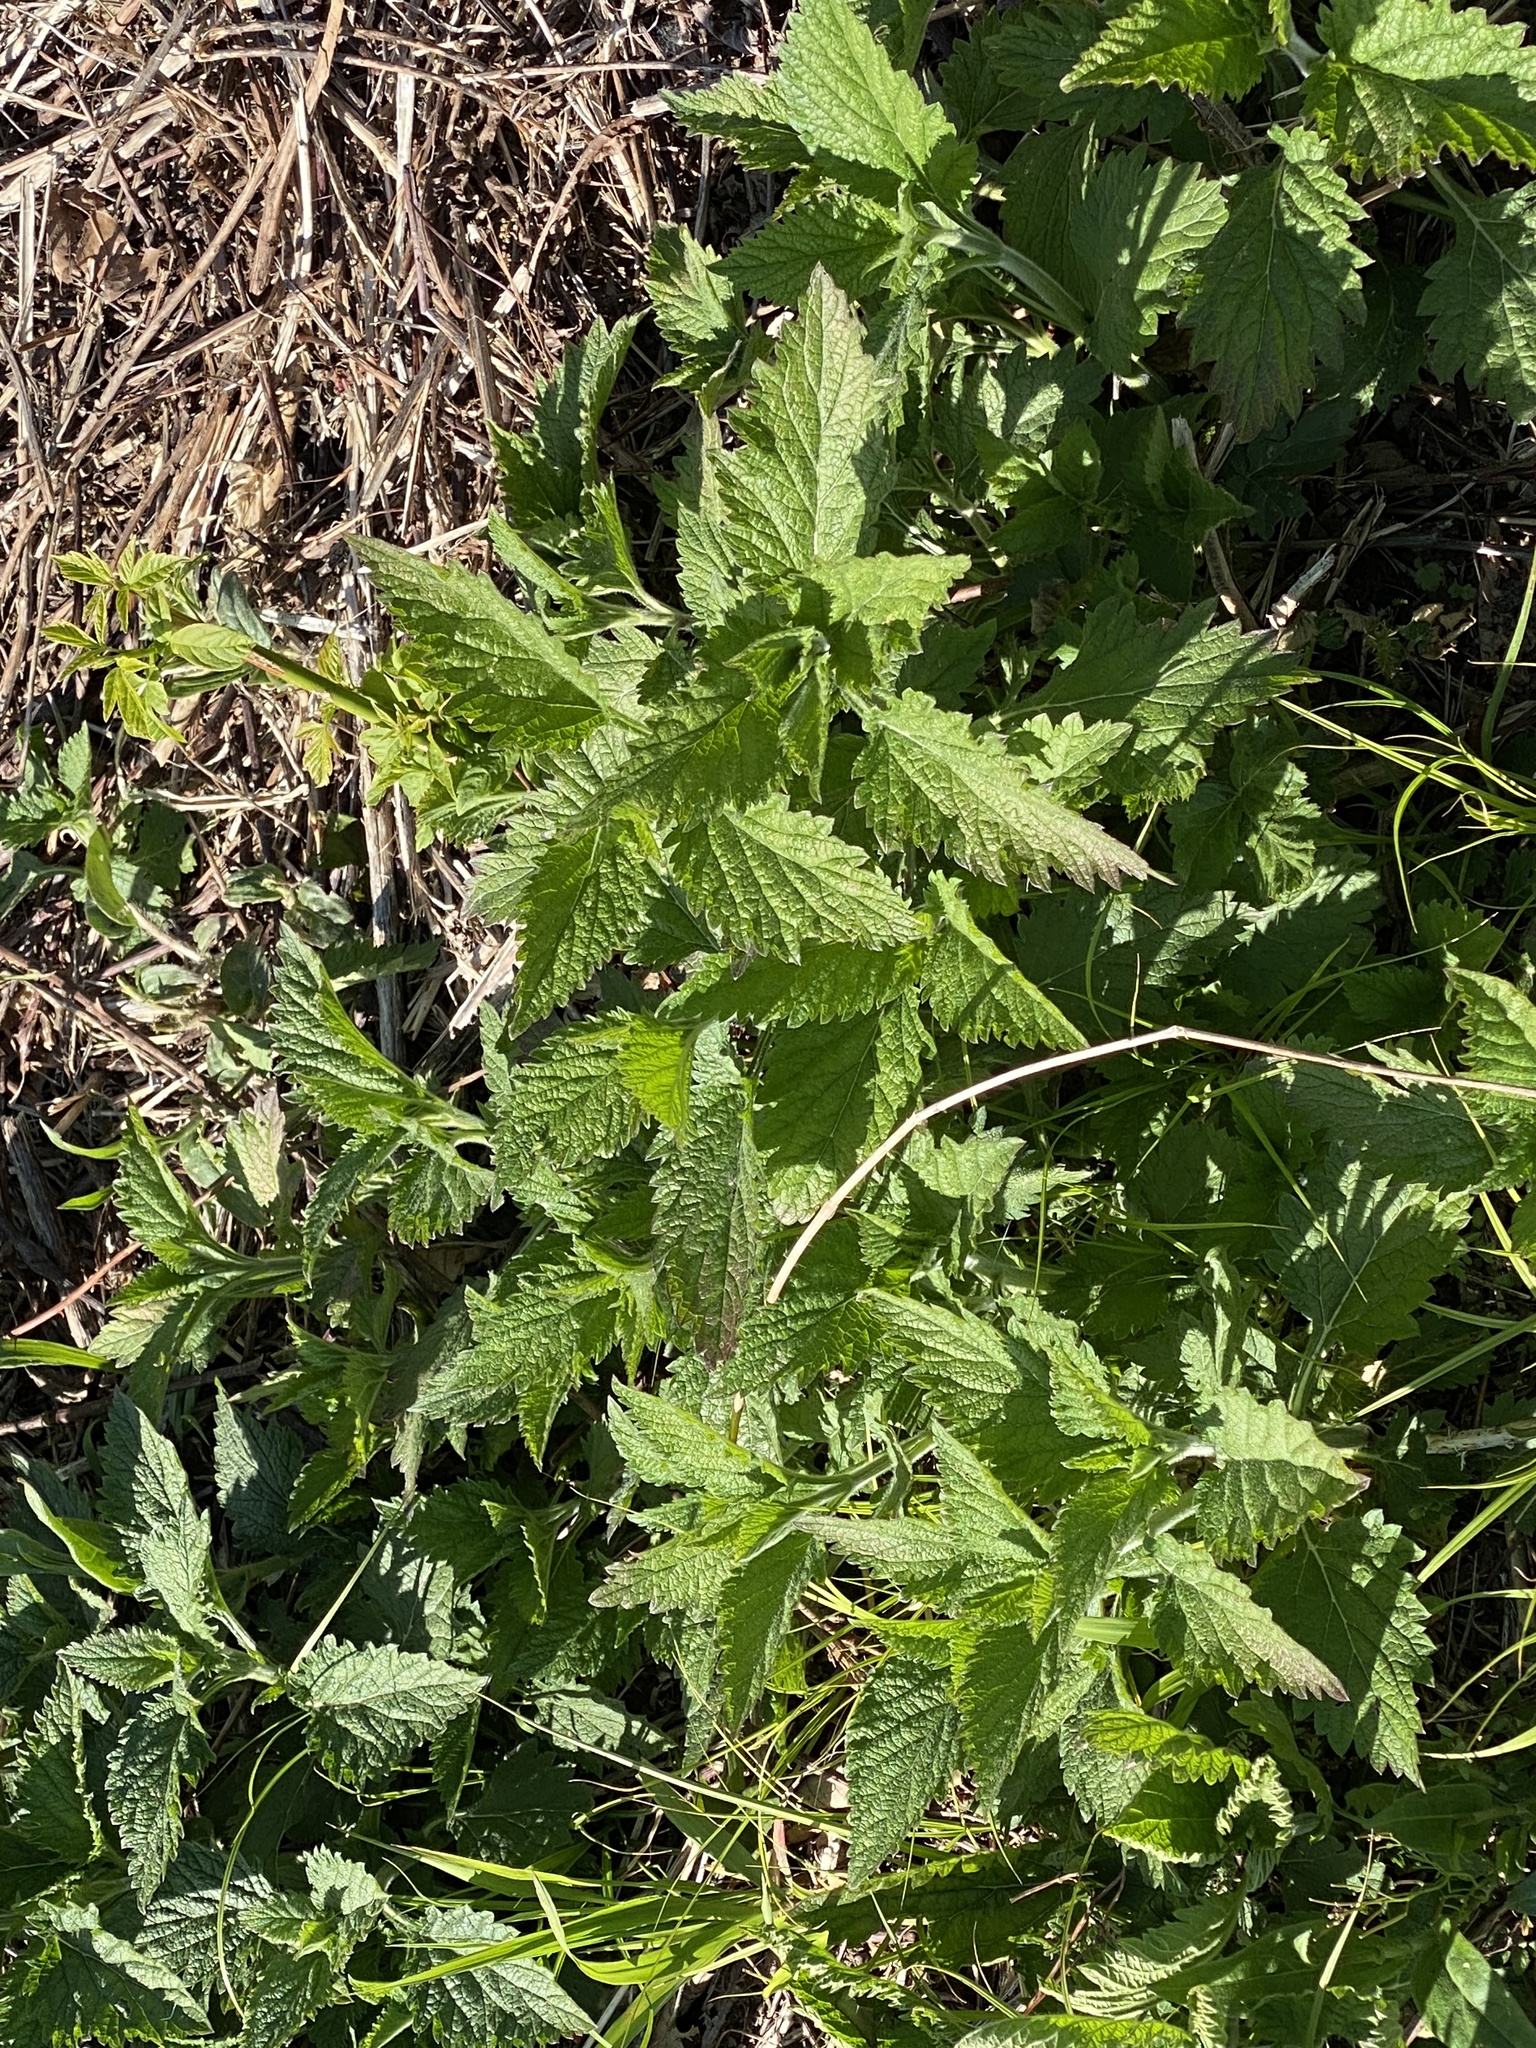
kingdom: Plantae
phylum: Tracheophyta
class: Magnoliopsida
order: Rosales
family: Urticaceae
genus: Urtica
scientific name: Urtica dioica
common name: Common nettle
